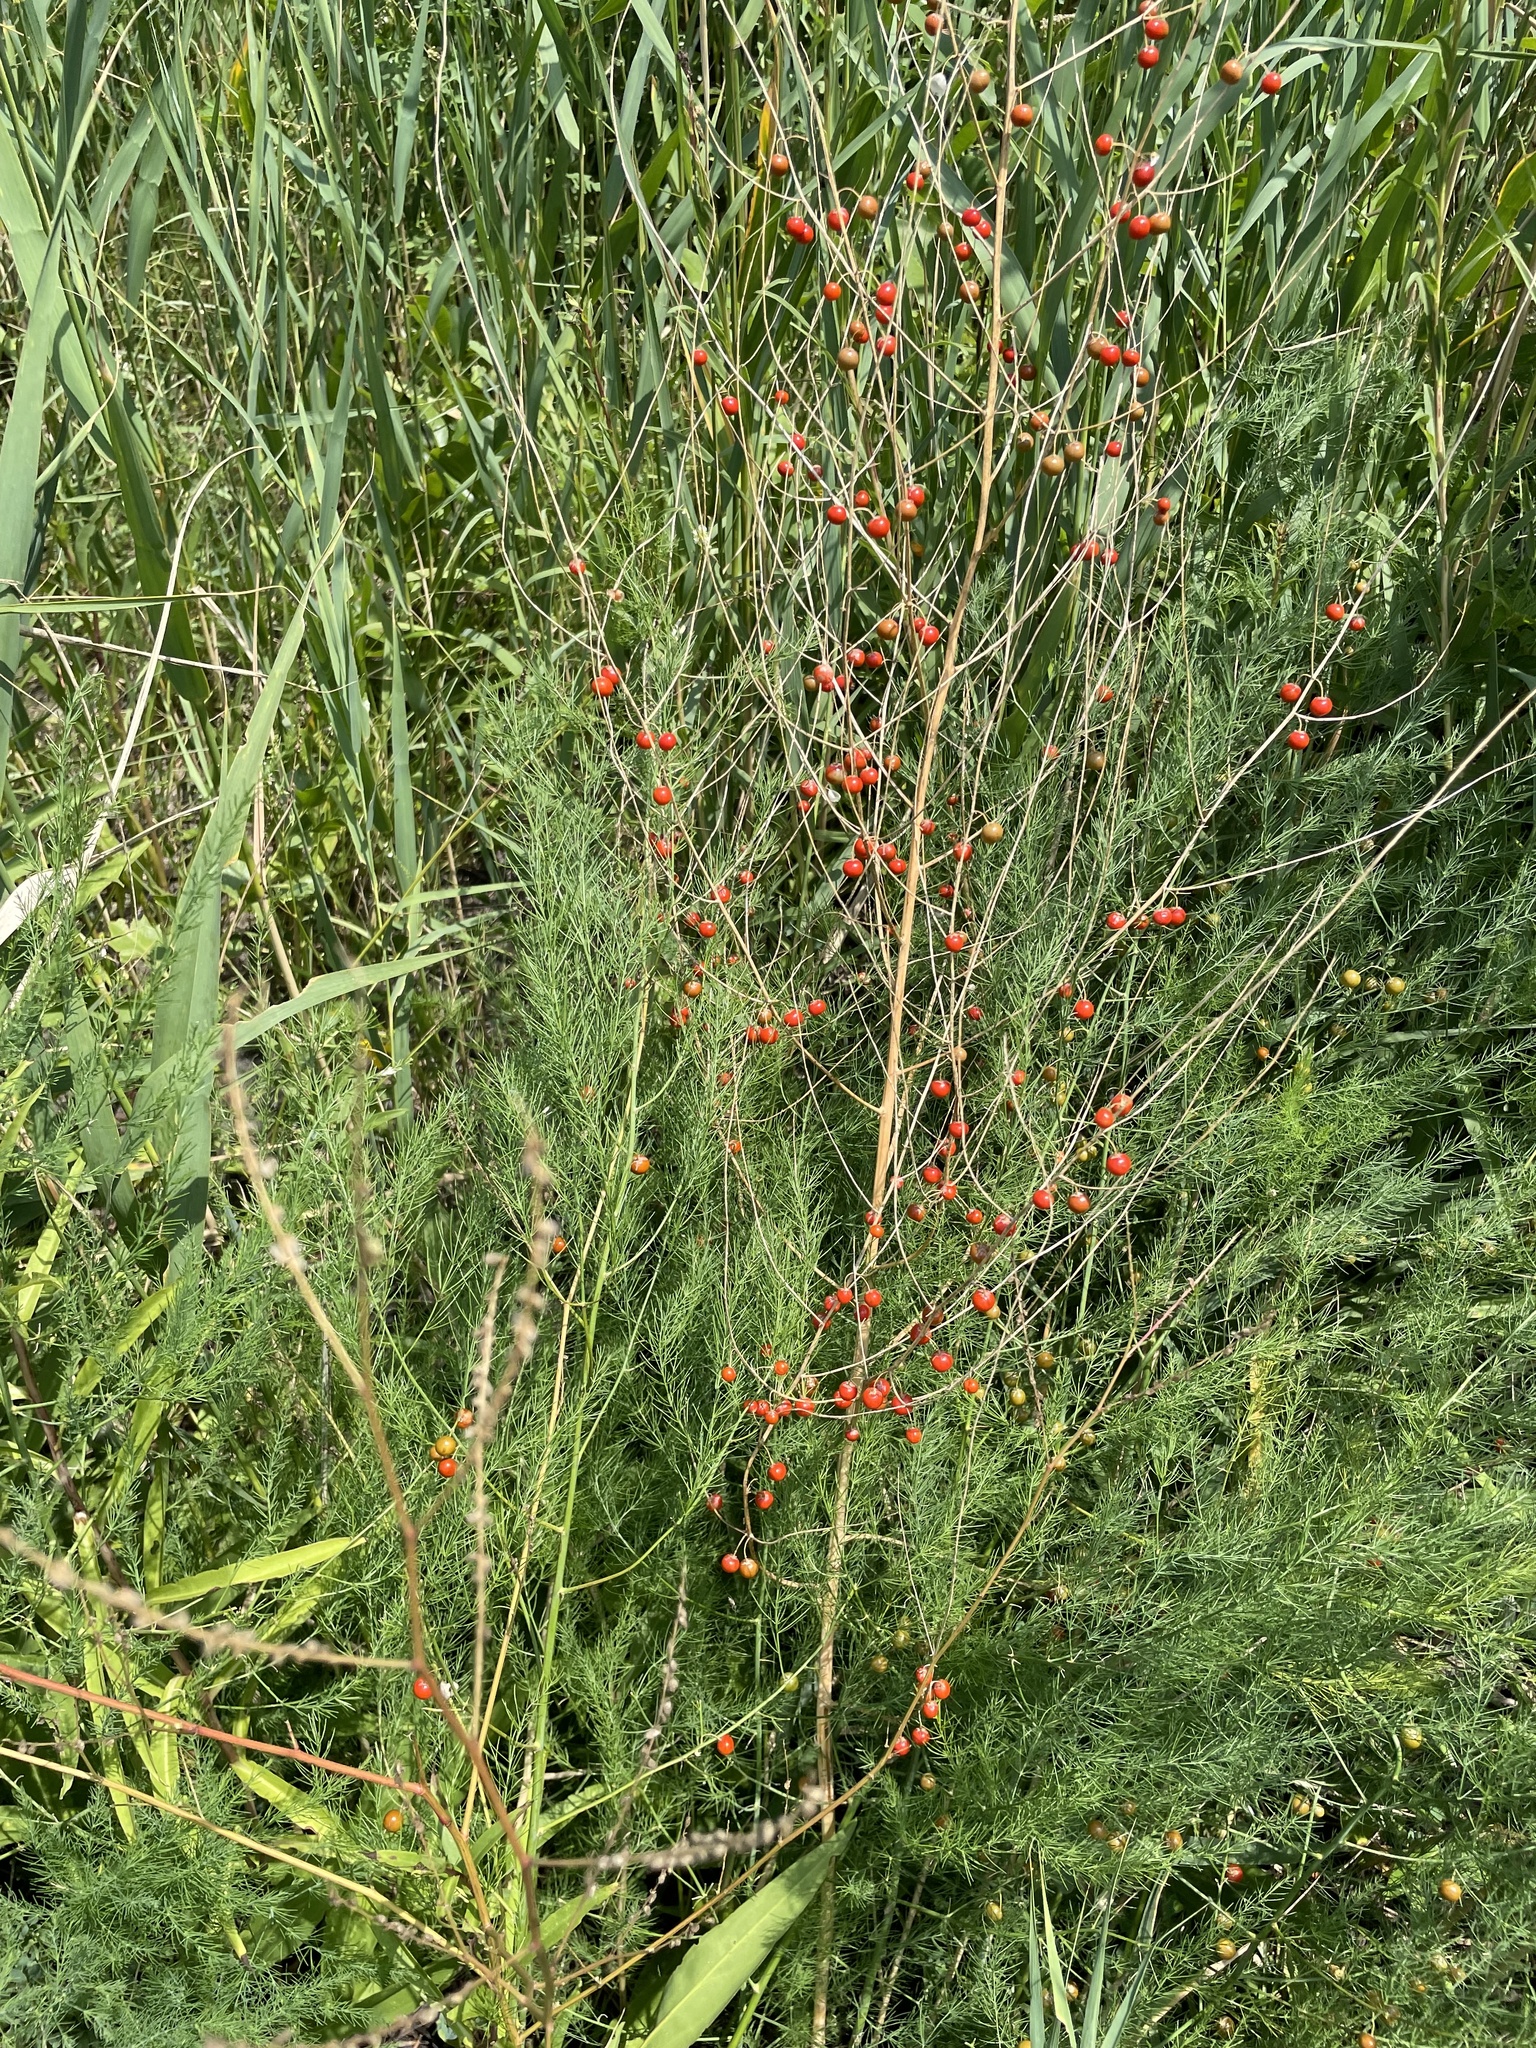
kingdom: Plantae
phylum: Tracheophyta
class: Liliopsida
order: Asparagales
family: Asparagaceae
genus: Asparagus
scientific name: Asparagus officinalis
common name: Garden asparagus
